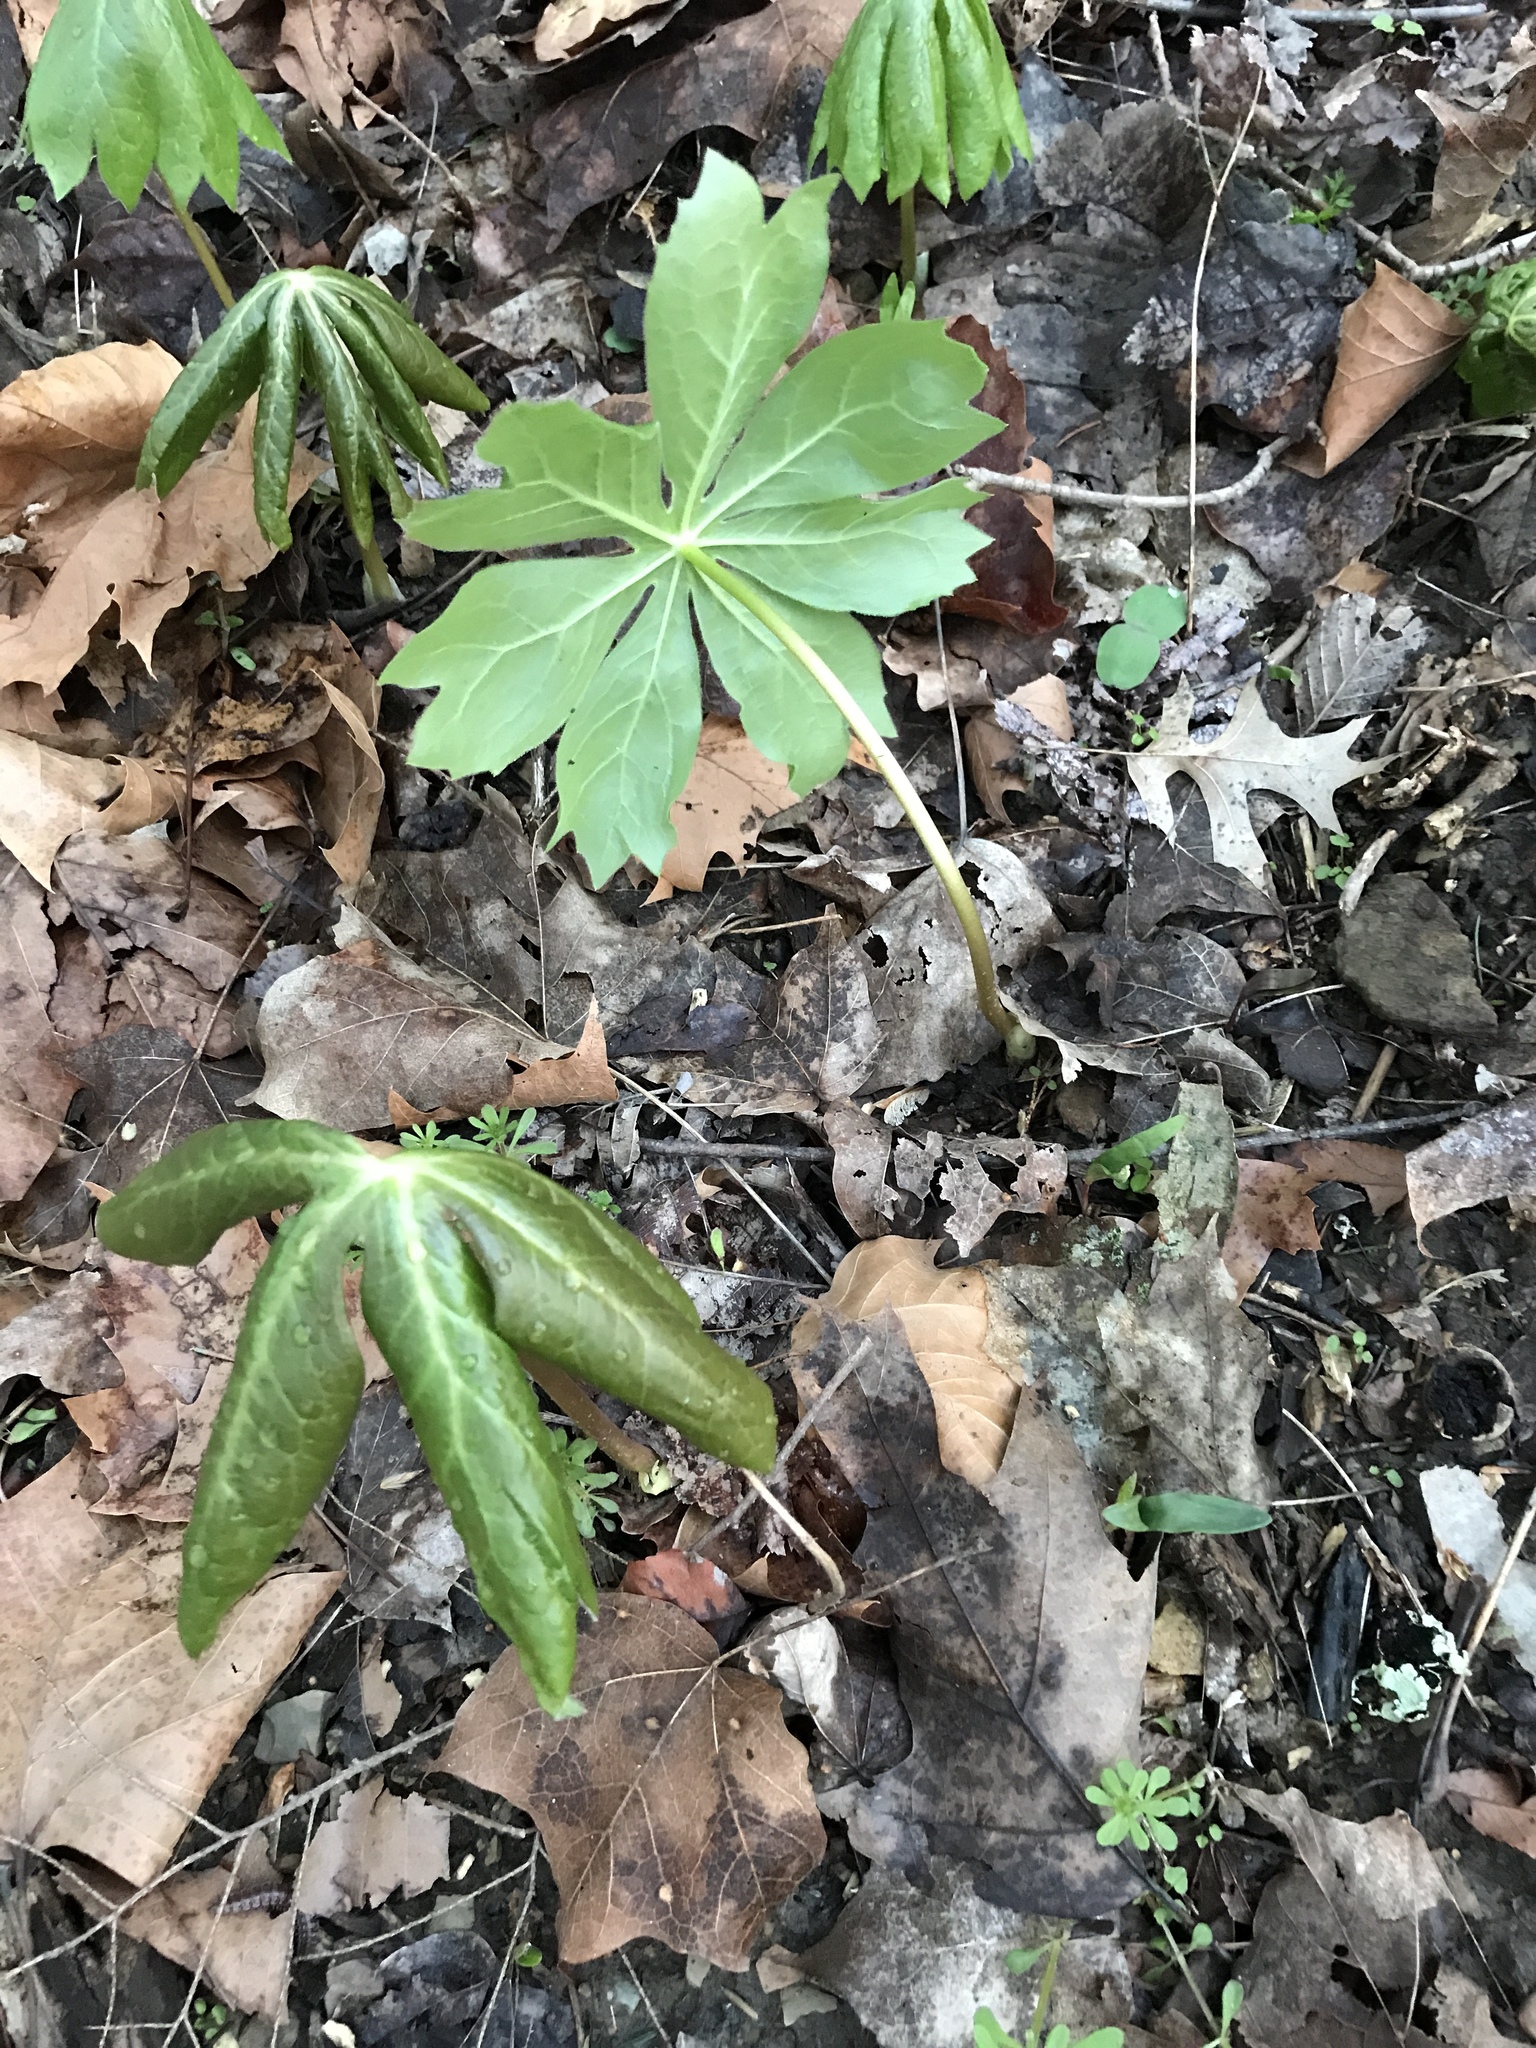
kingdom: Plantae
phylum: Tracheophyta
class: Magnoliopsida
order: Ranunculales
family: Berberidaceae
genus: Podophyllum
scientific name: Podophyllum peltatum
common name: Wild mandrake
